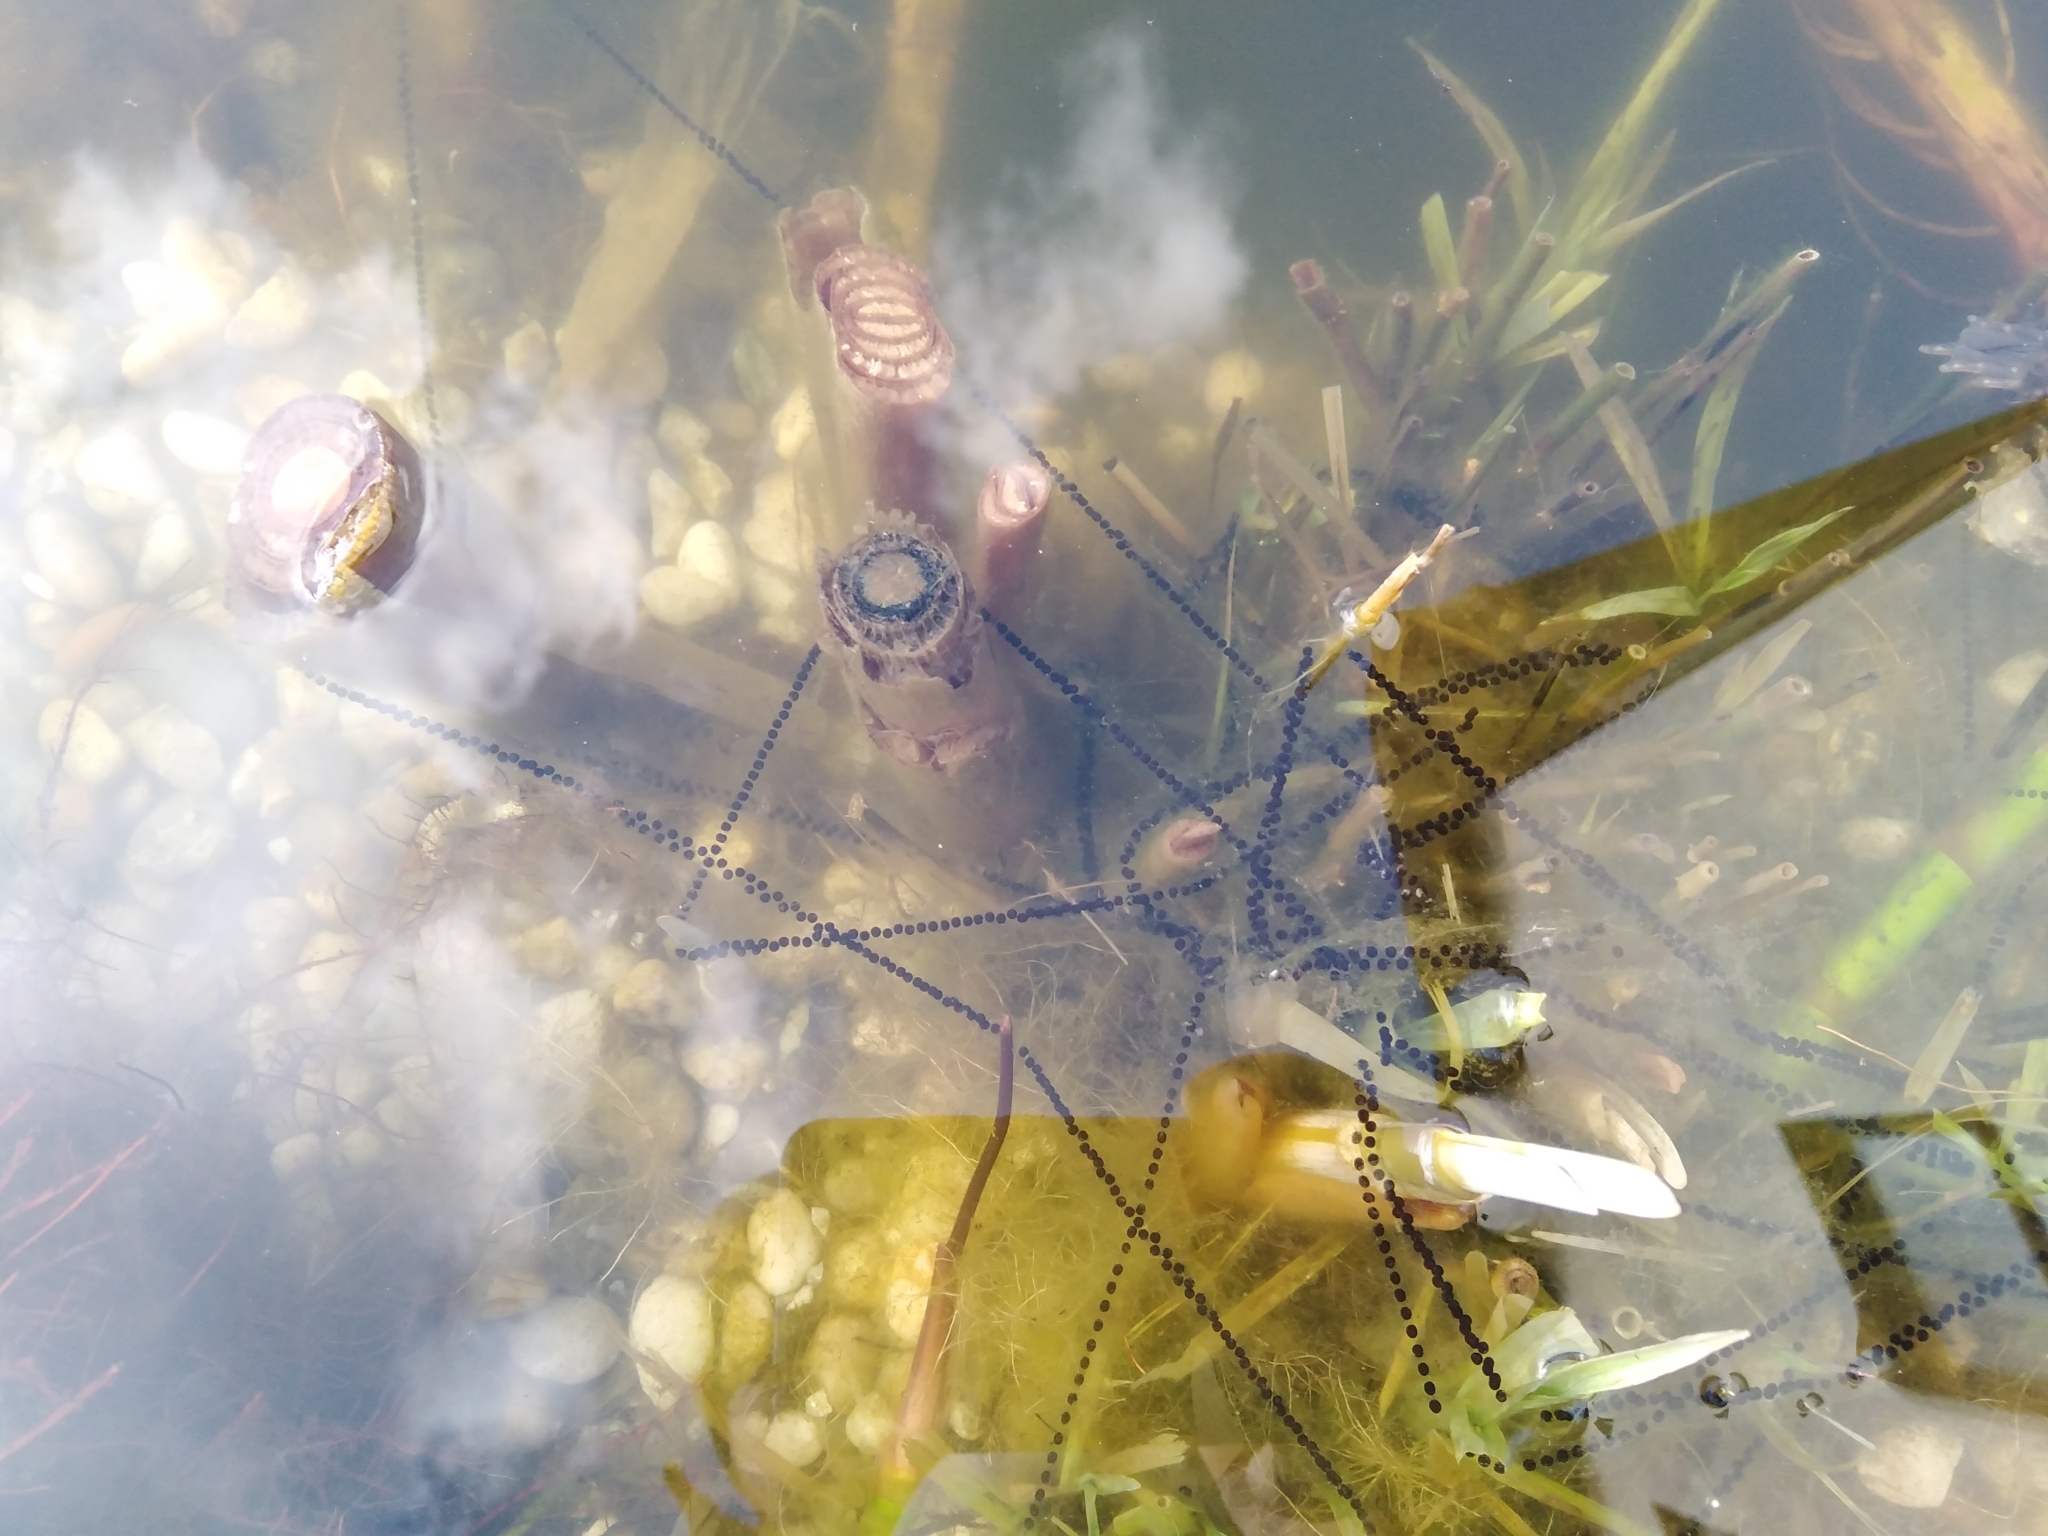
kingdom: Animalia
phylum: Chordata
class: Amphibia
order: Anura
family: Bufonidae
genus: Bufo
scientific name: Bufo bufo
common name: Common toad
